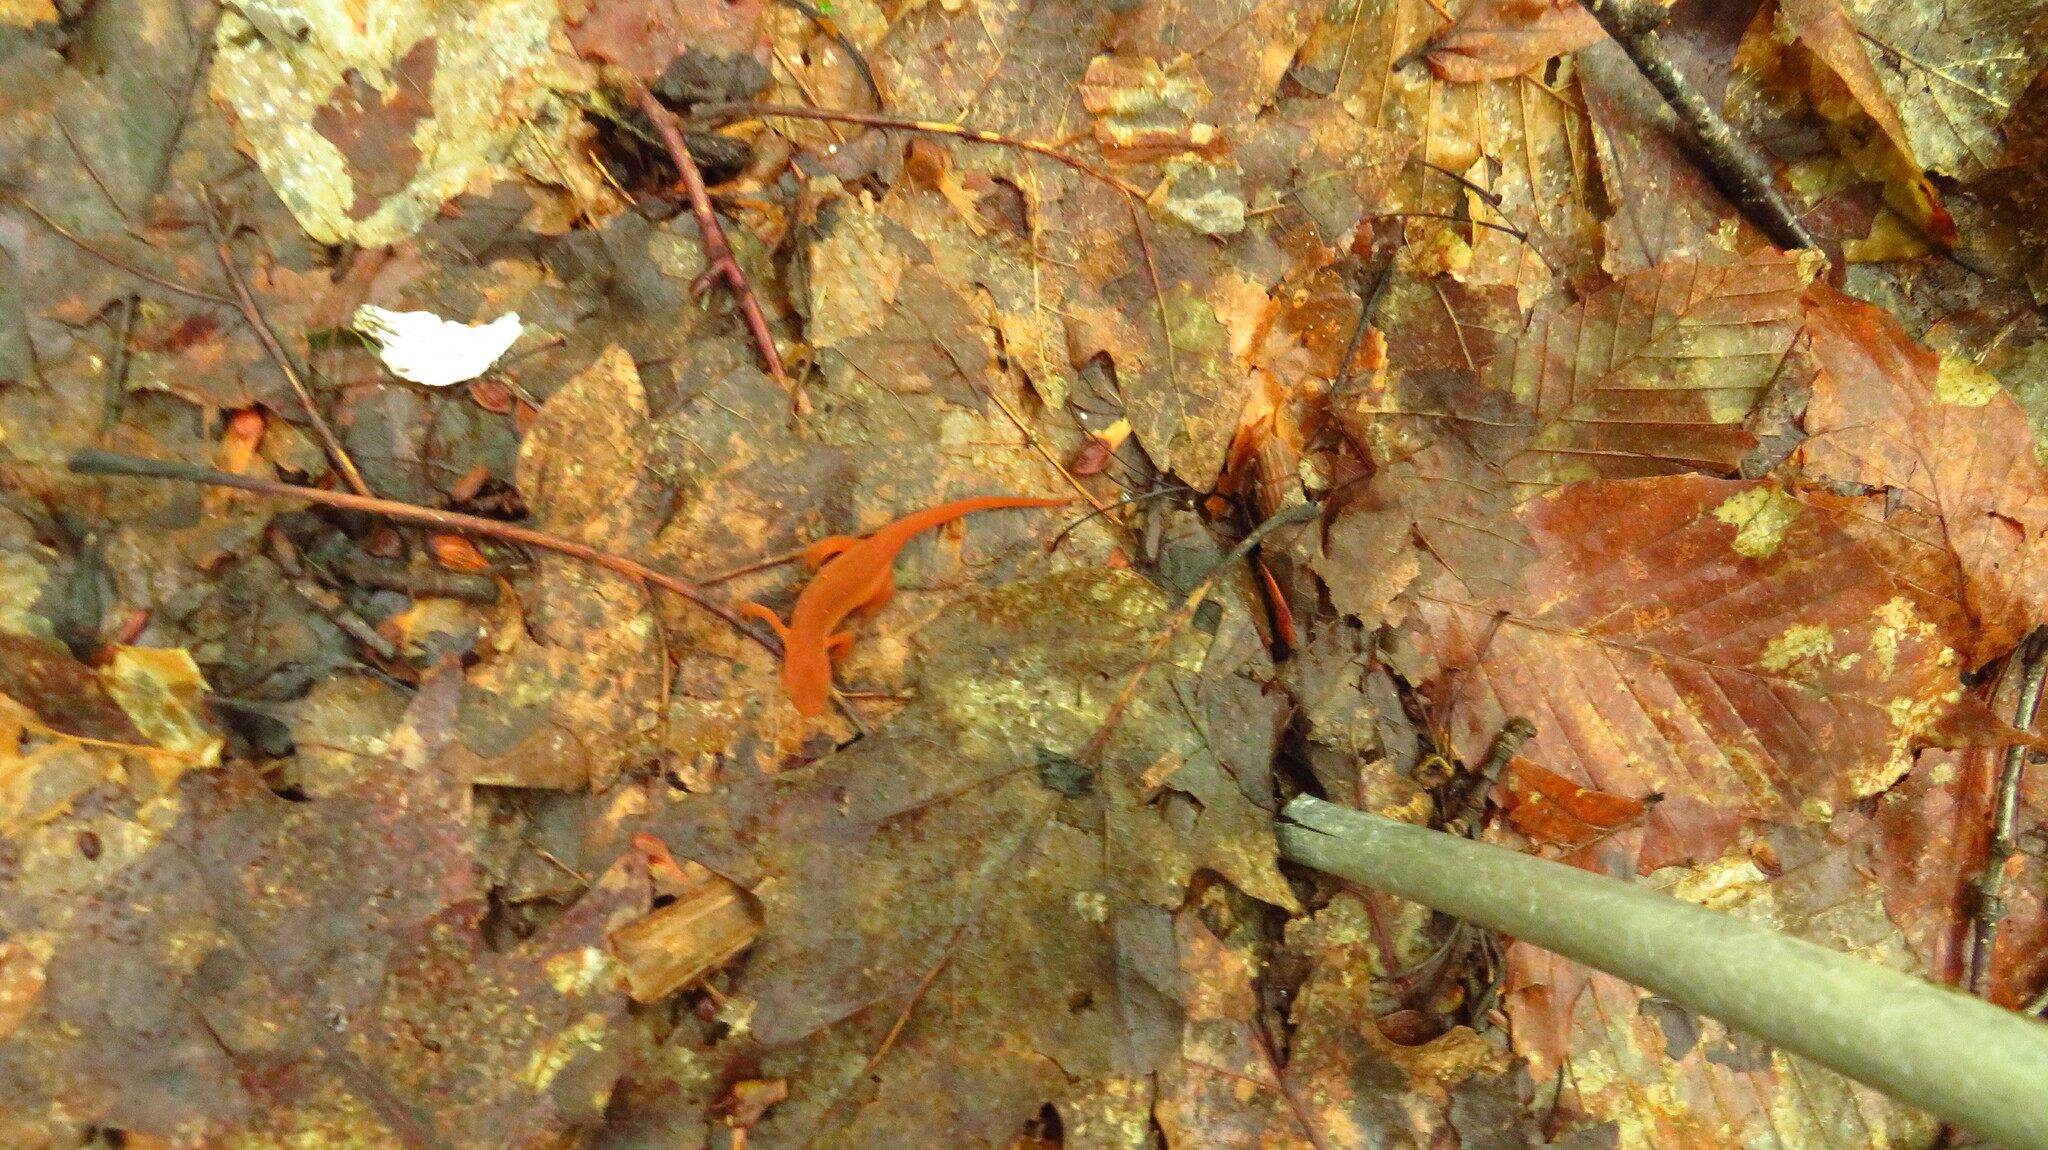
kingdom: Animalia
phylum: Chordata
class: Amphibia
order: Caudata
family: Salamandridae
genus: Notophthalmus
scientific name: Notophthalmus viridescens
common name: Eastern newt
